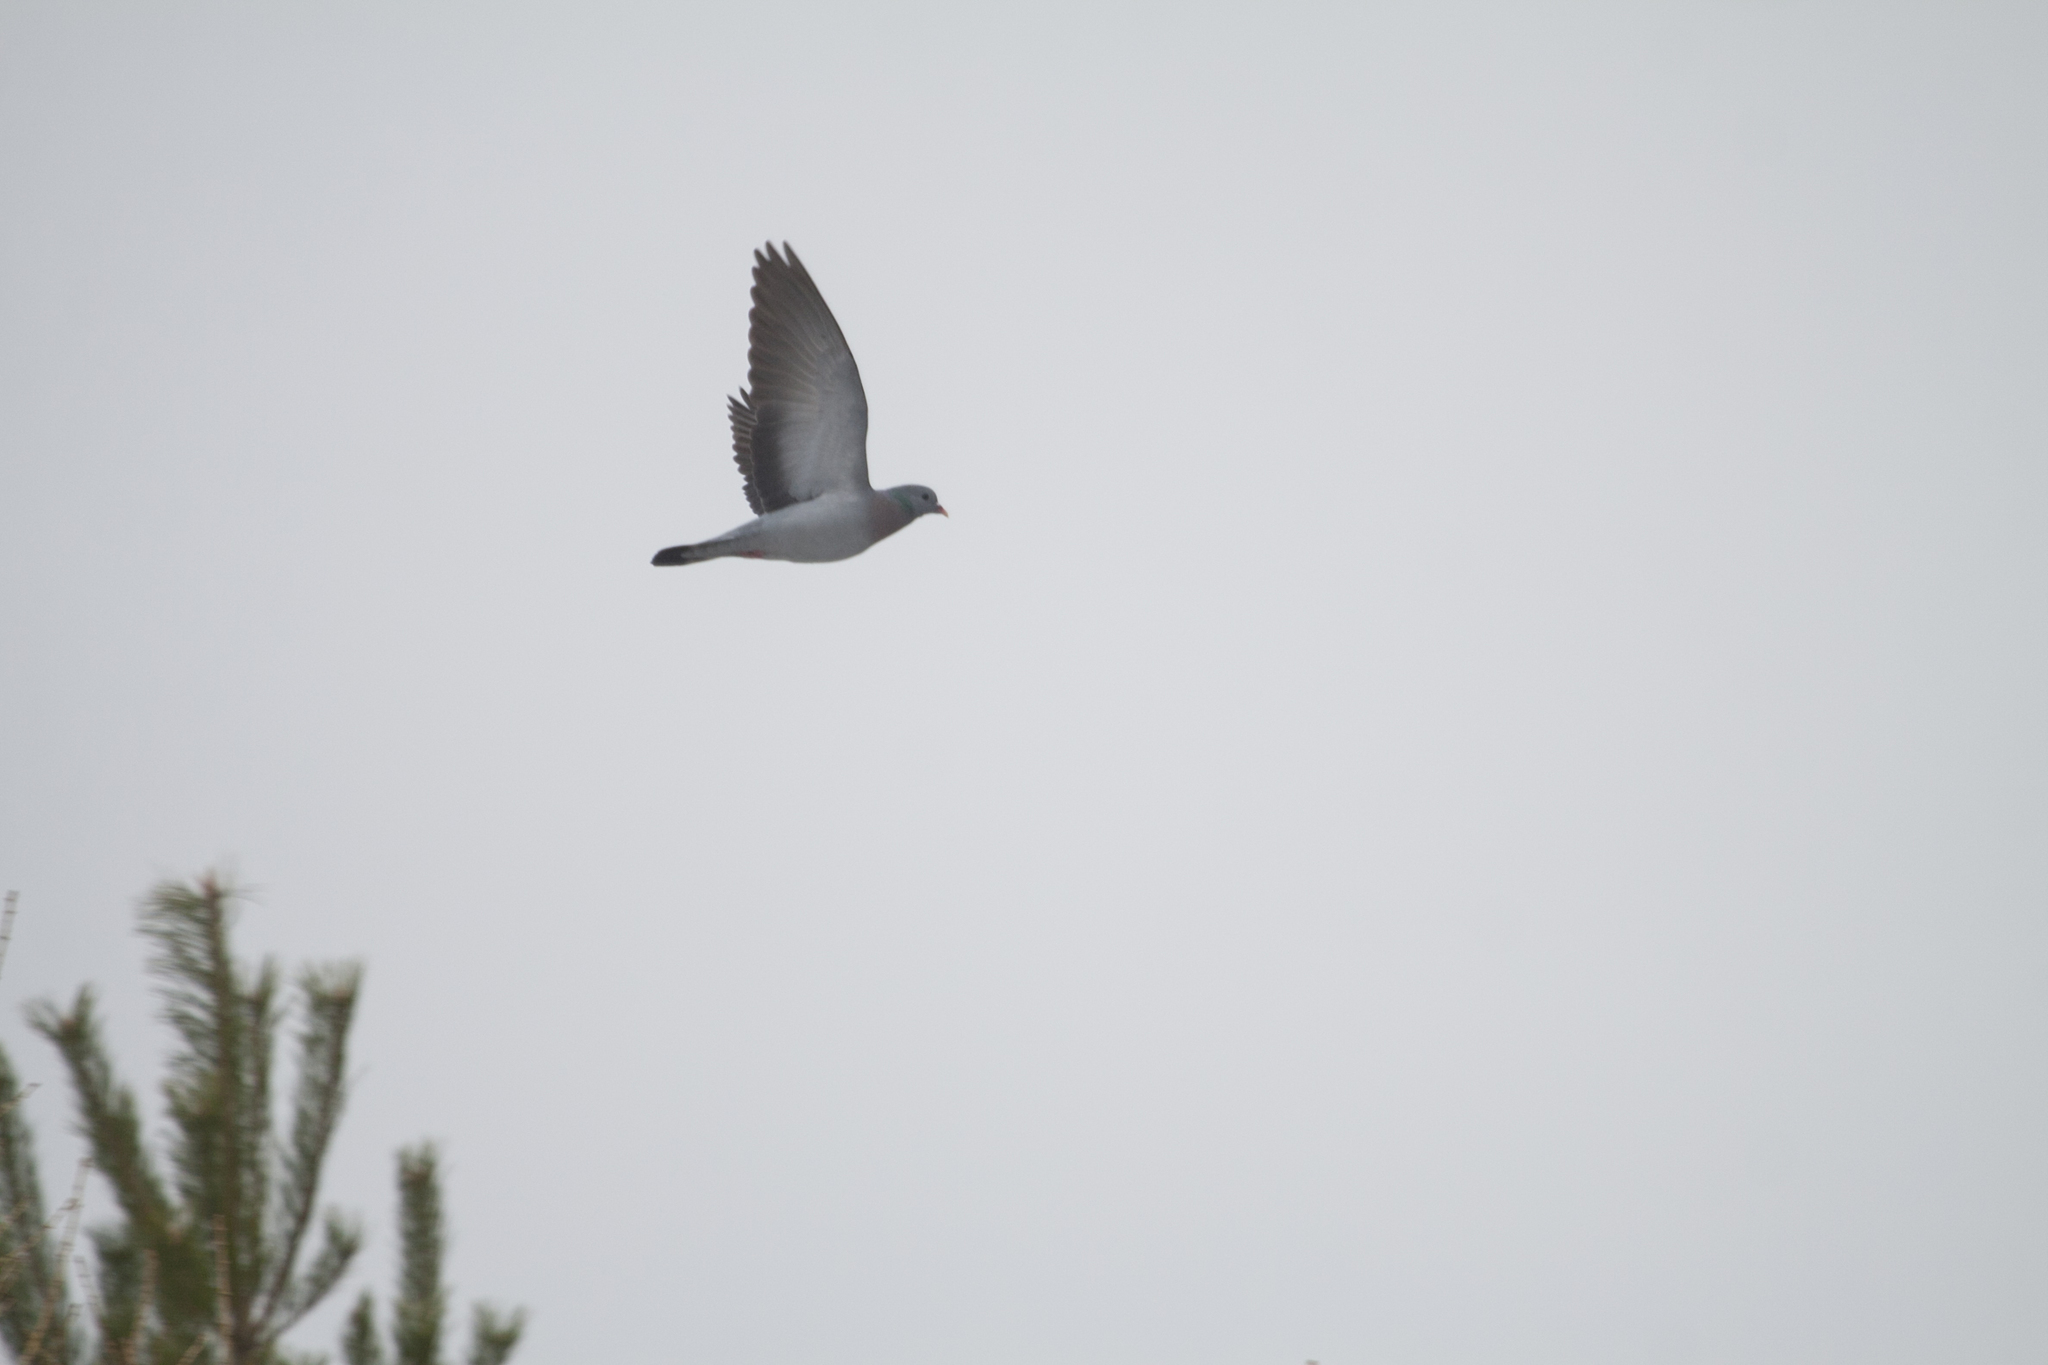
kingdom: Animalia
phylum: Chordata
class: Aves
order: Columbiformes
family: Columbidae
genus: Columba
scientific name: Columba oenas
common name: Stock dove
